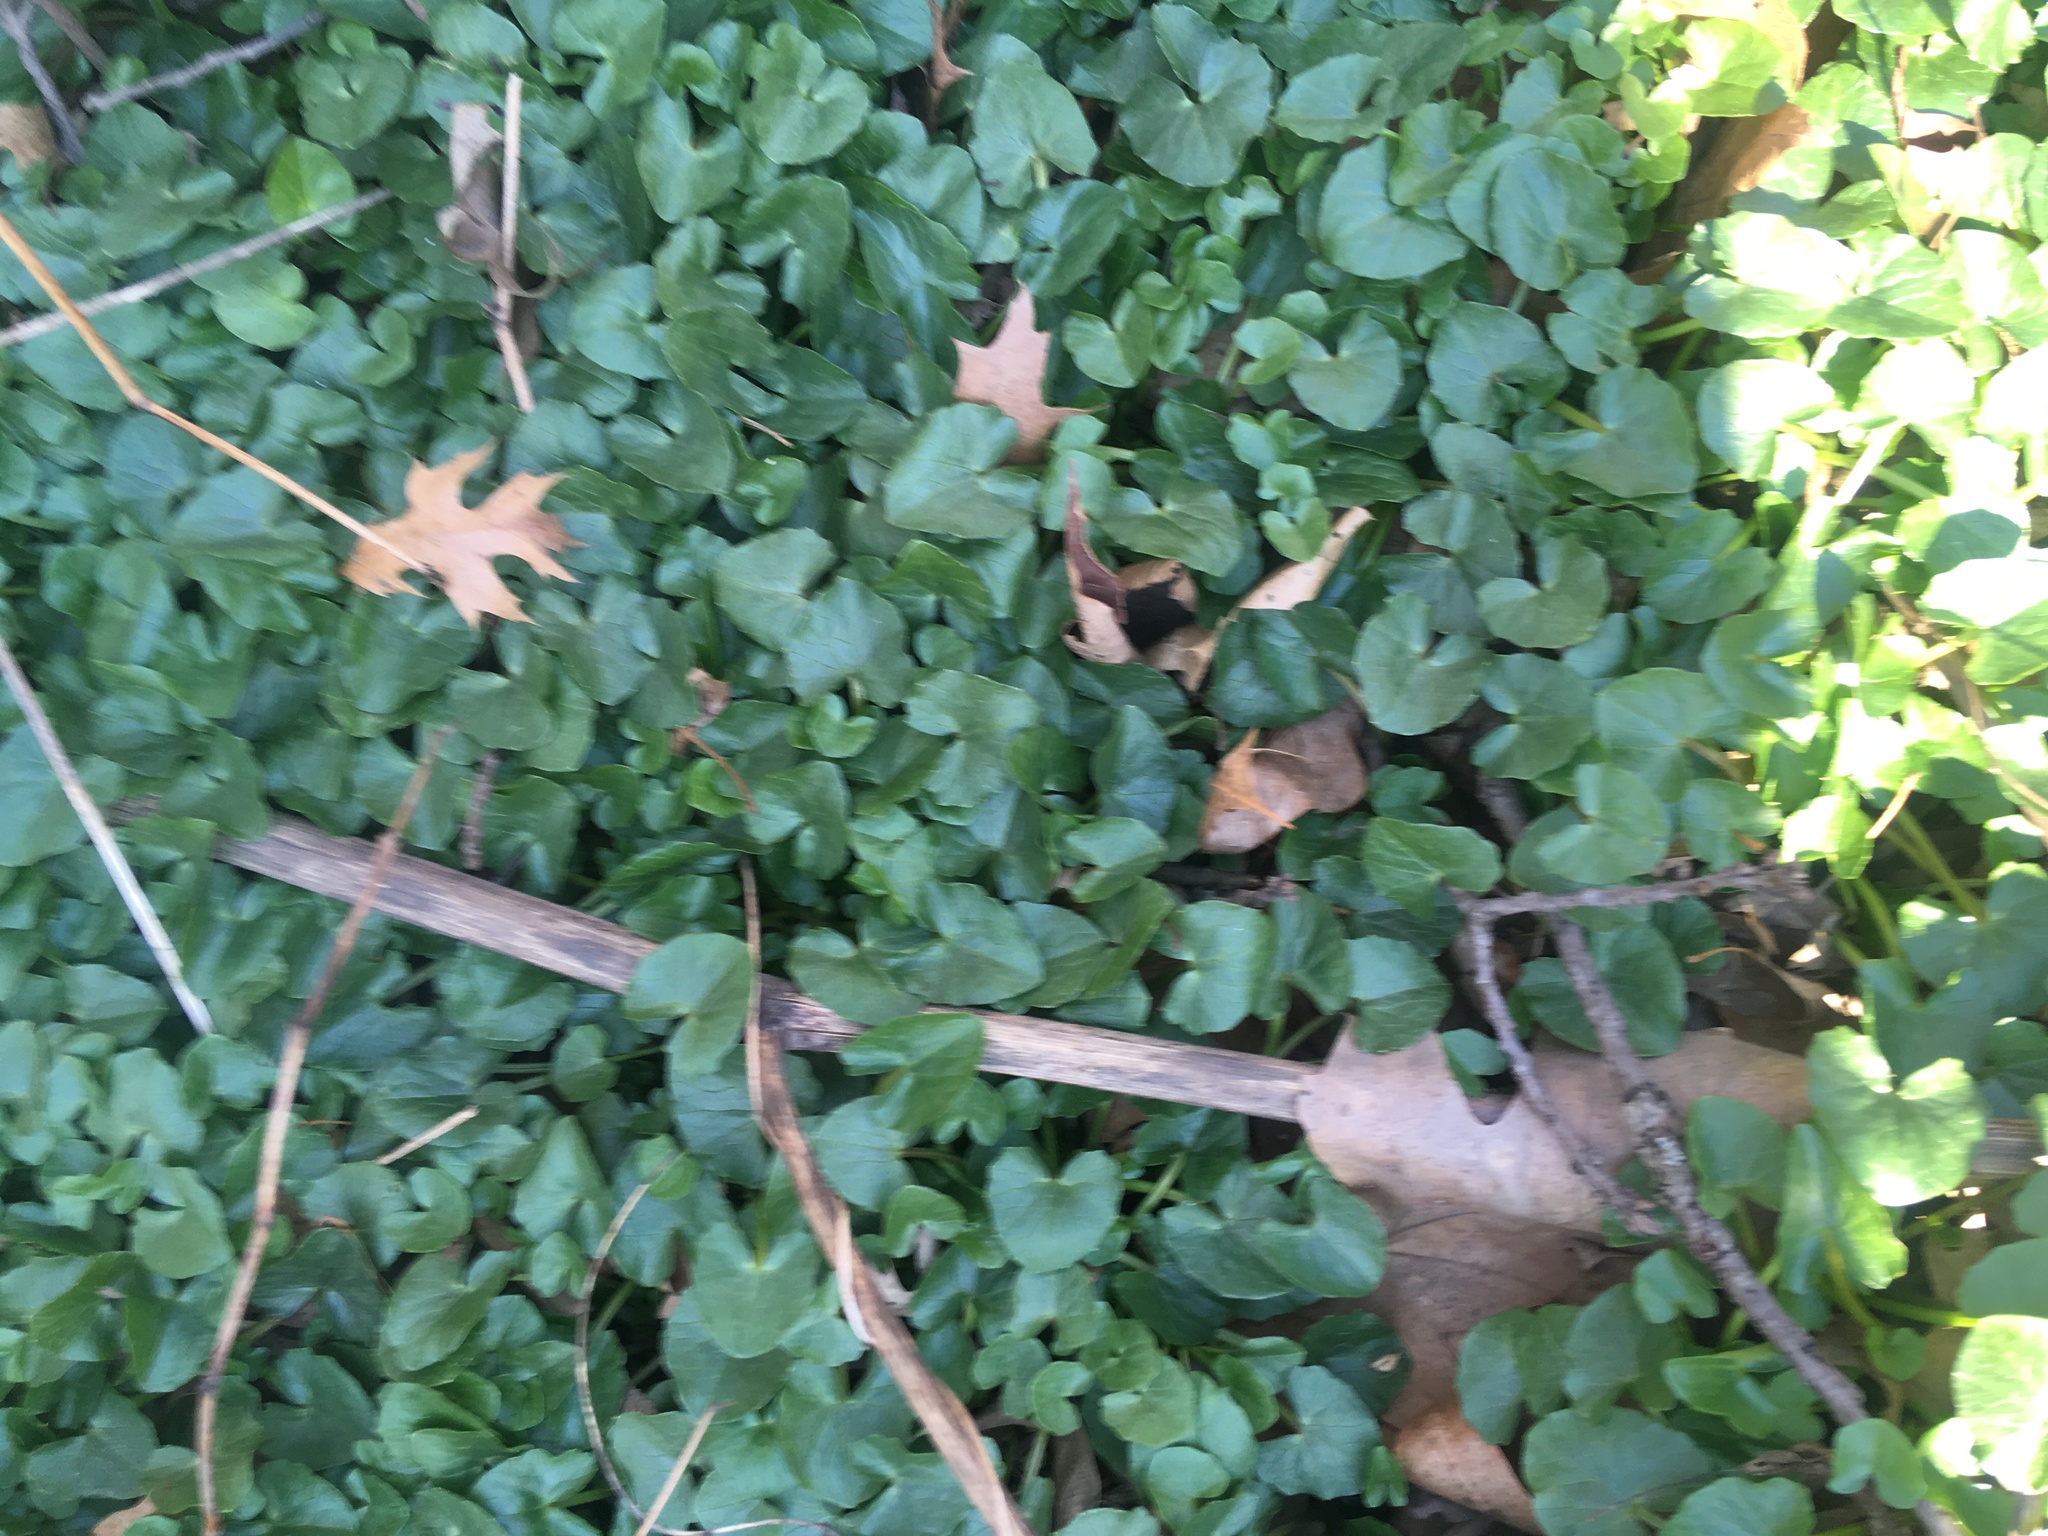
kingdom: Plantae
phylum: Tracheophyta
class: Magnoliopsida
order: Ranunculales
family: Ranunculaceae
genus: Ficaria
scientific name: Ficaria verna
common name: Lesser celandine
